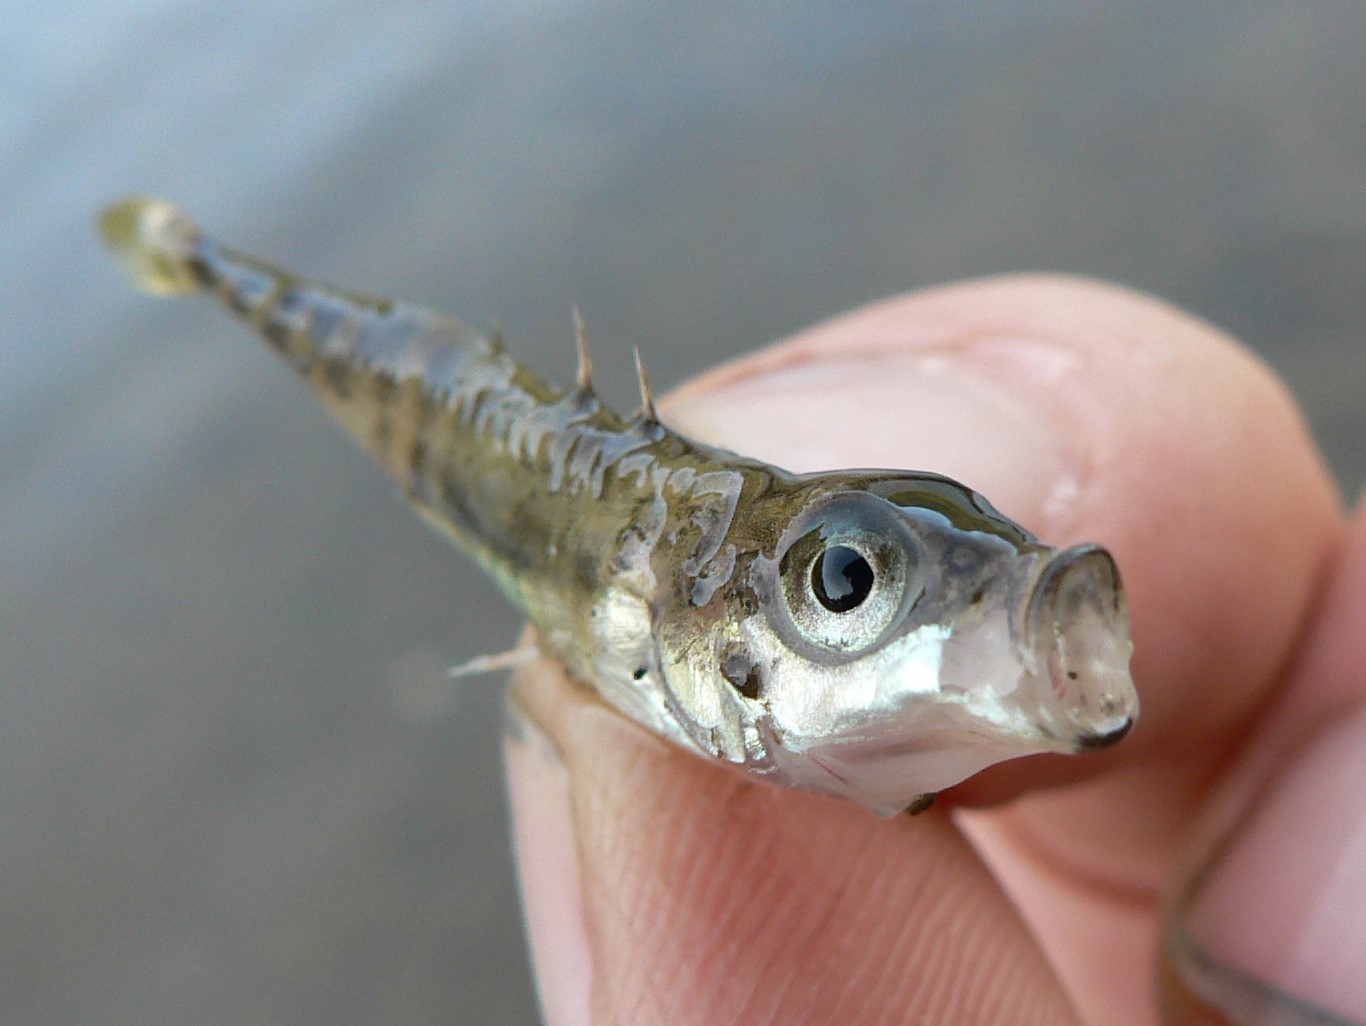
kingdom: Animalia
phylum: Chordata
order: Gasterosteiformes
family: Gasterosteidae
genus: Gasterosteus
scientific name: Gasterosteus aculeatus
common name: Three-spined stickleback
